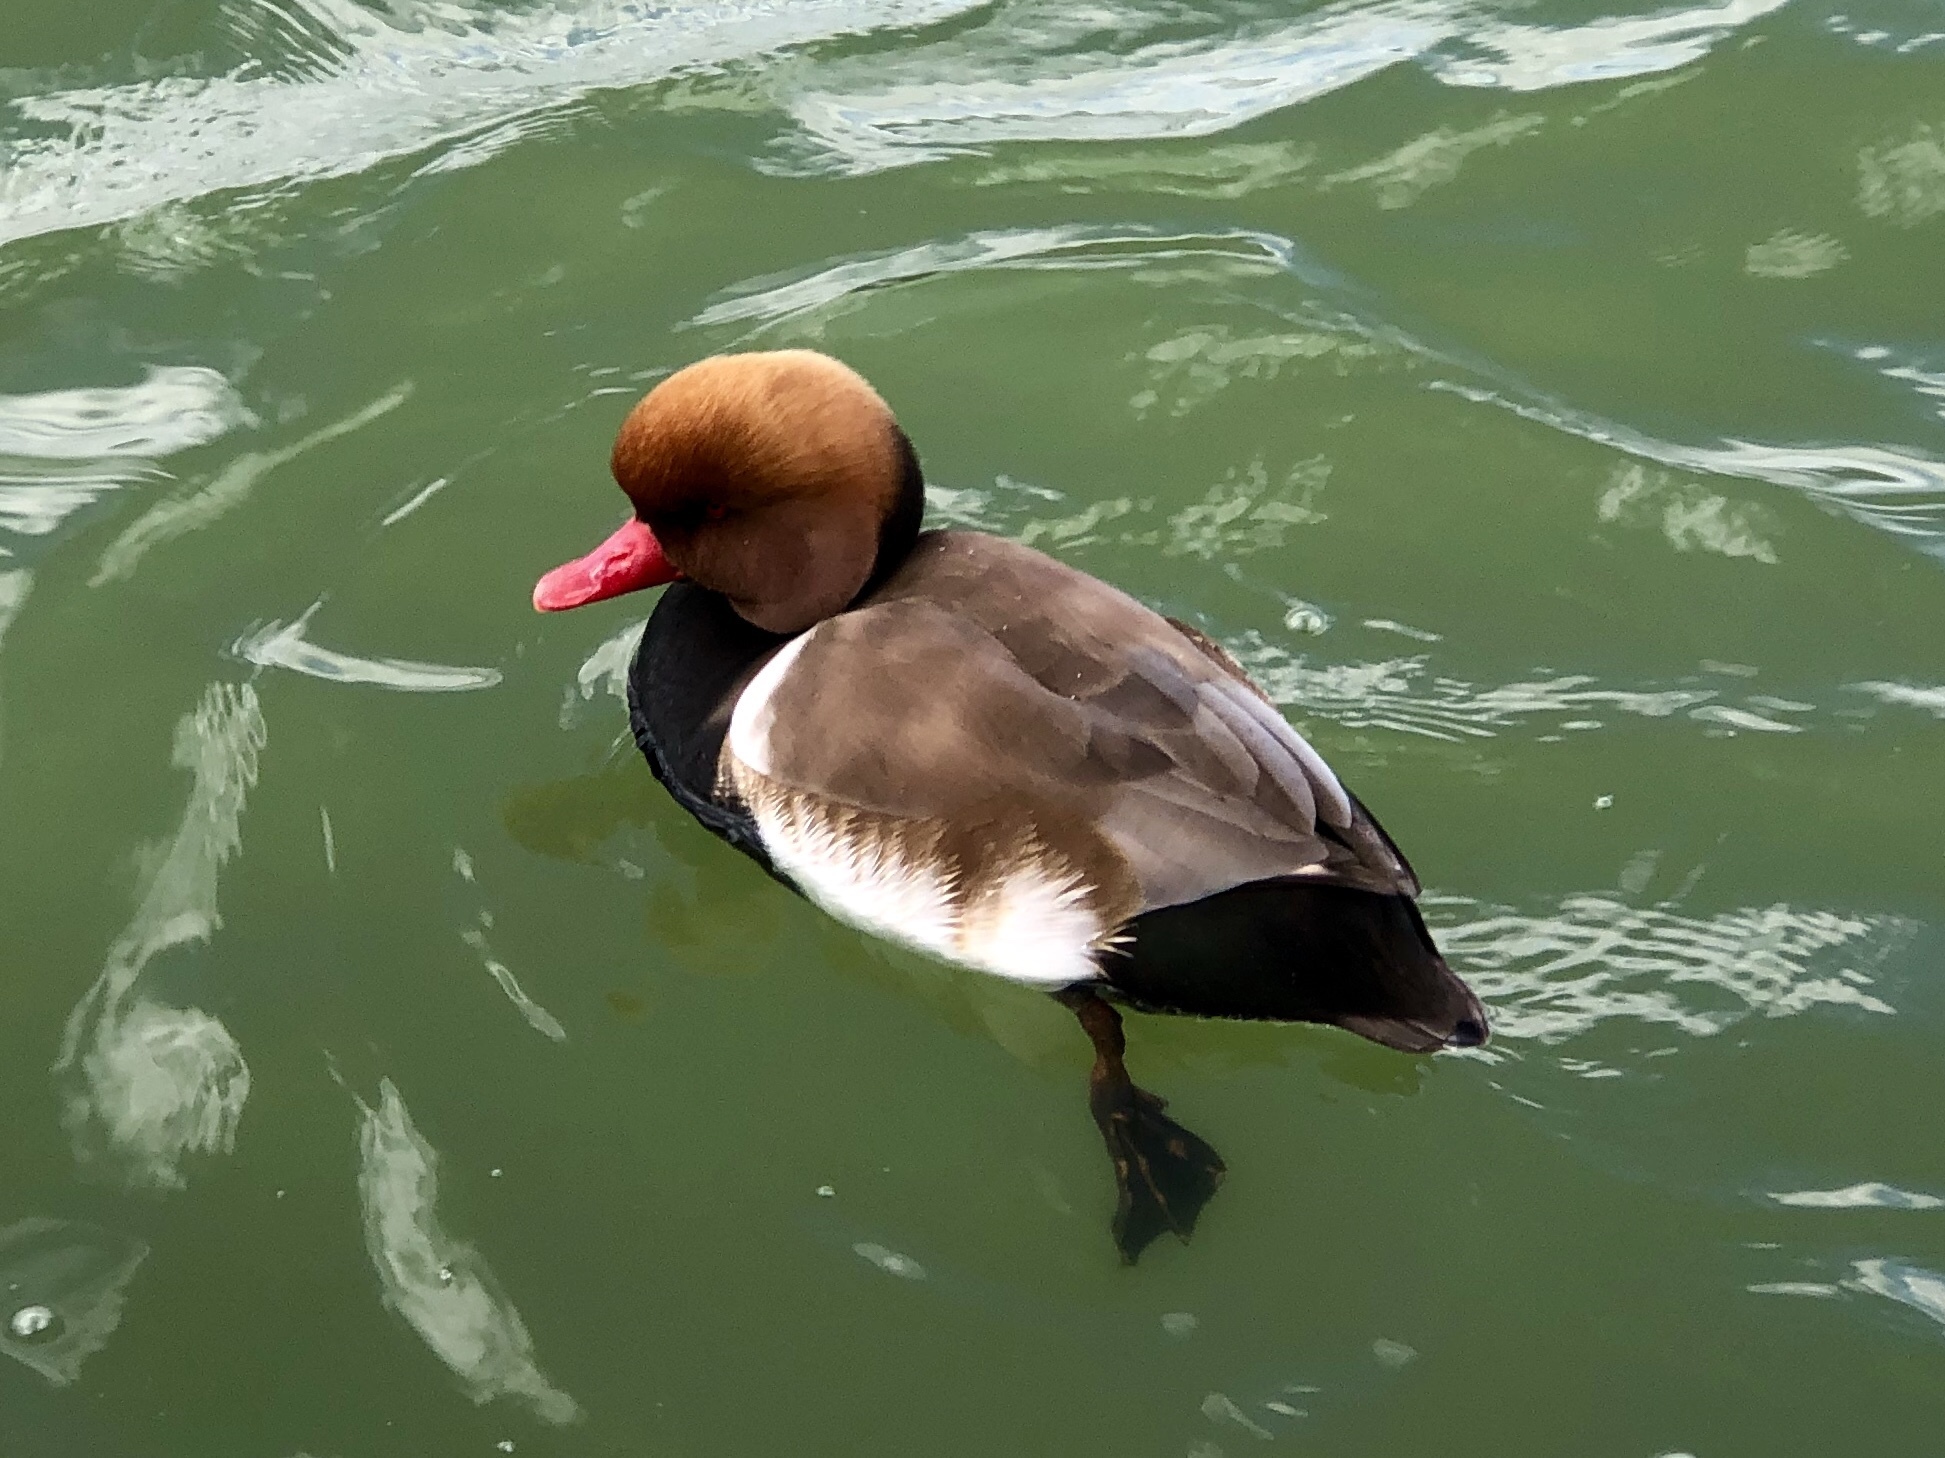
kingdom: Animalia
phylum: Chordata
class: Aves
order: Anseriformes
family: Anatidae
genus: Netta
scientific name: Netta rufina
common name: Red-crested pochard
